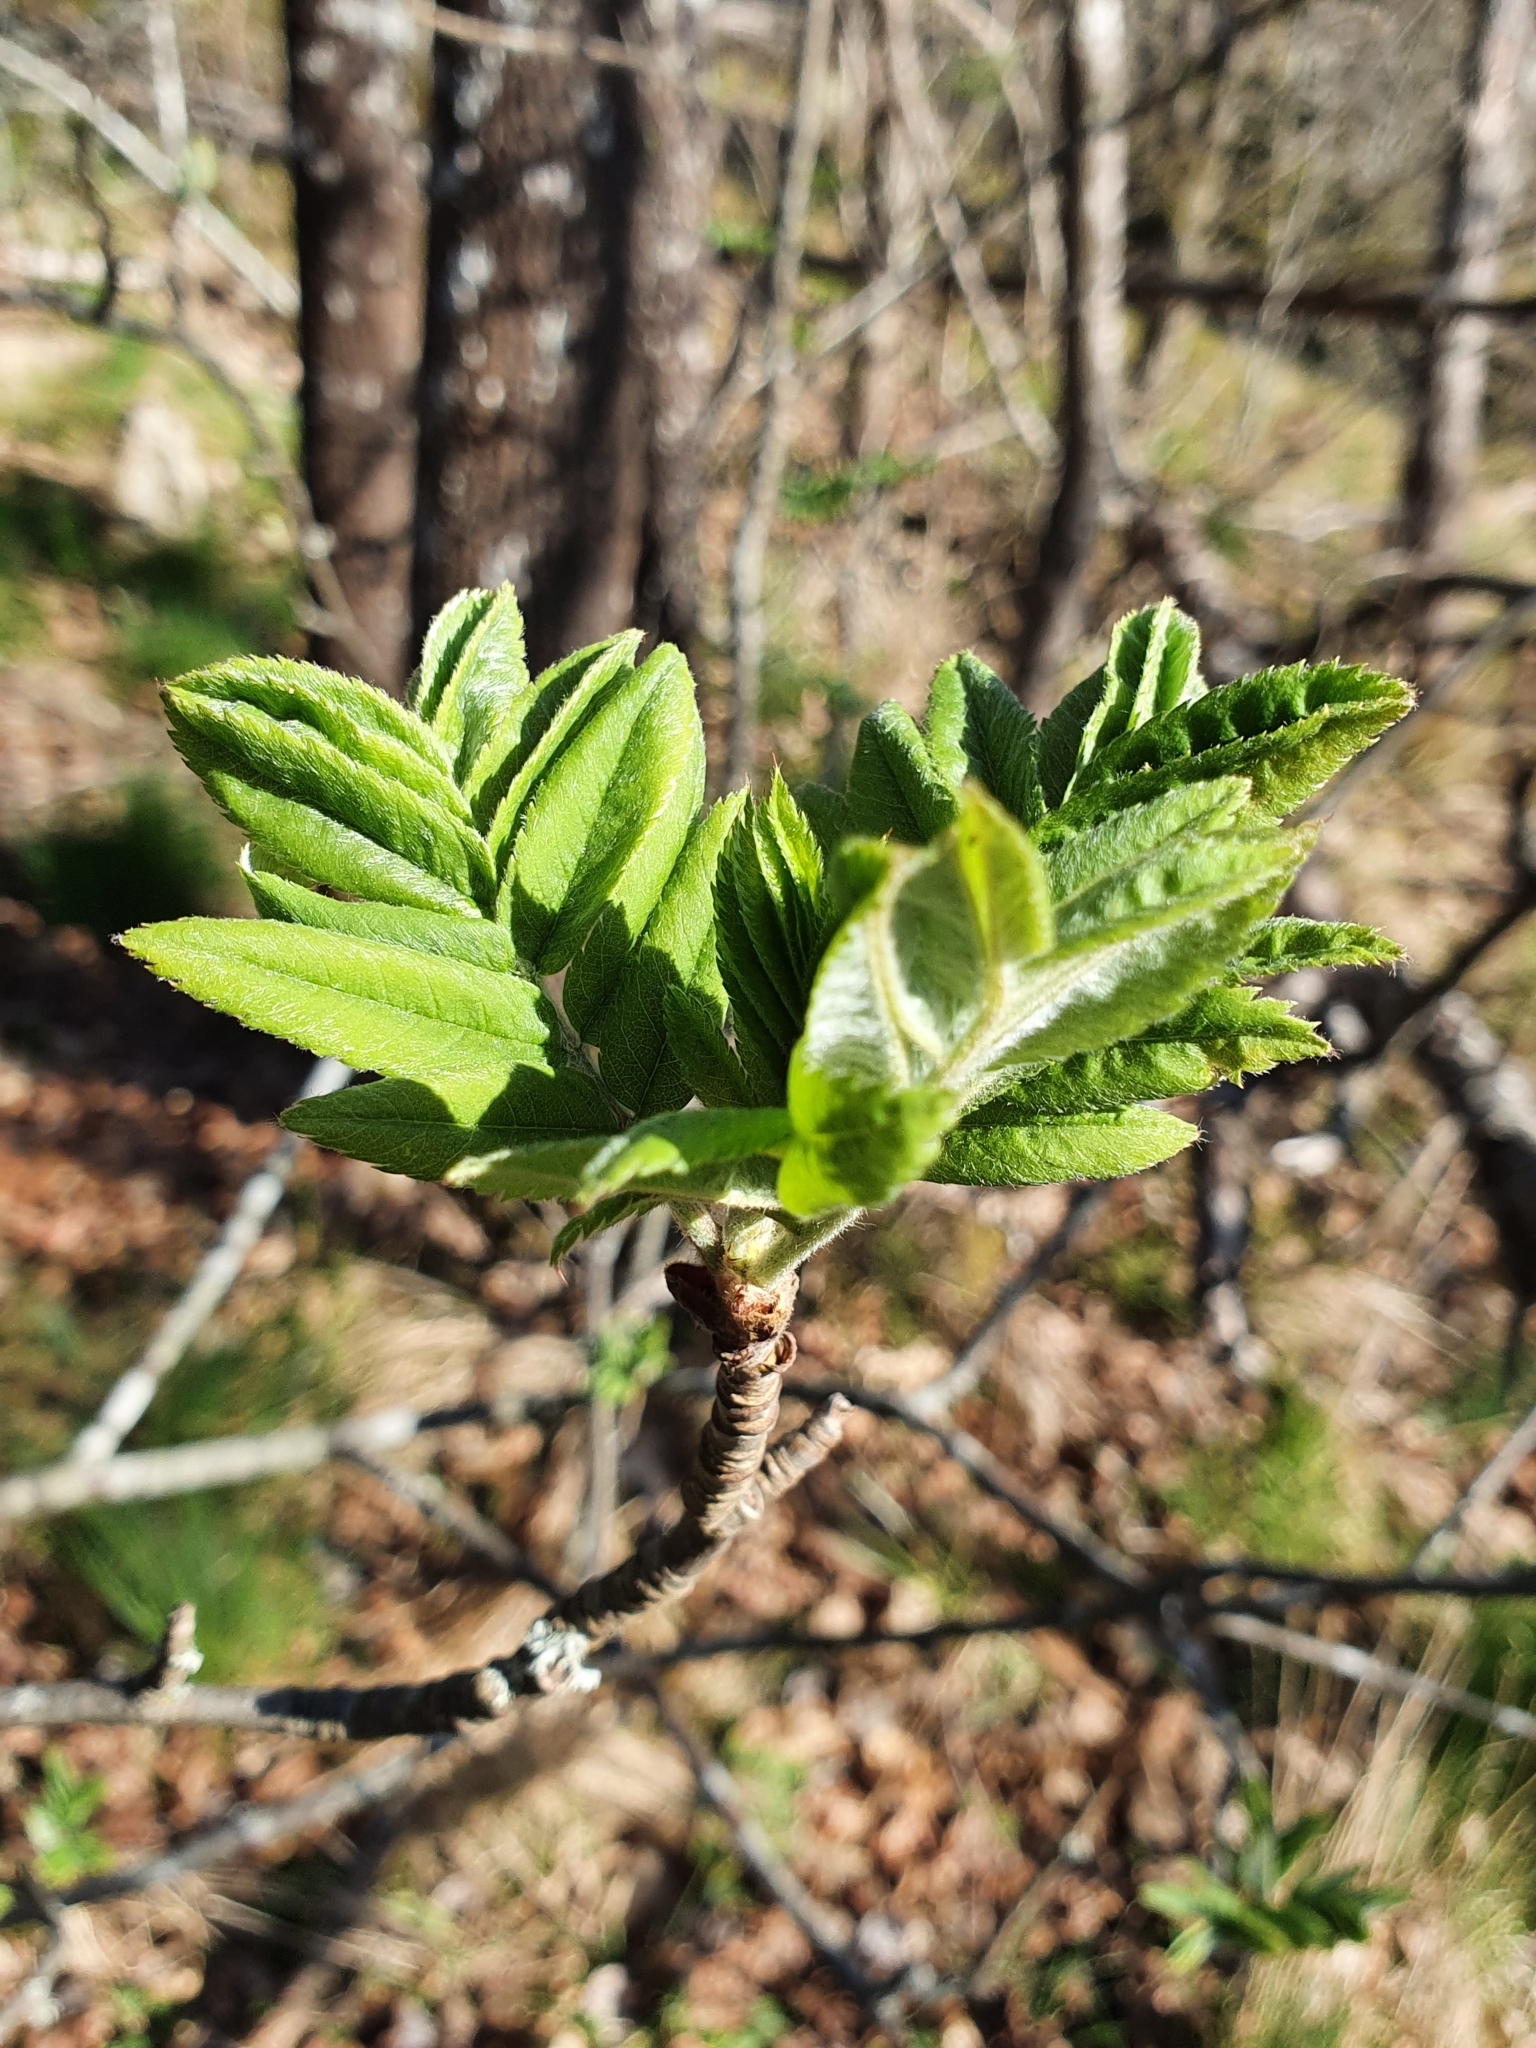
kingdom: Plantae
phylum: Tracheophyta
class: Magnoliopsida
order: Rosales
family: Rosaceae
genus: Sorbus
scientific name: Sorbus aucuparia
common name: Rowan
